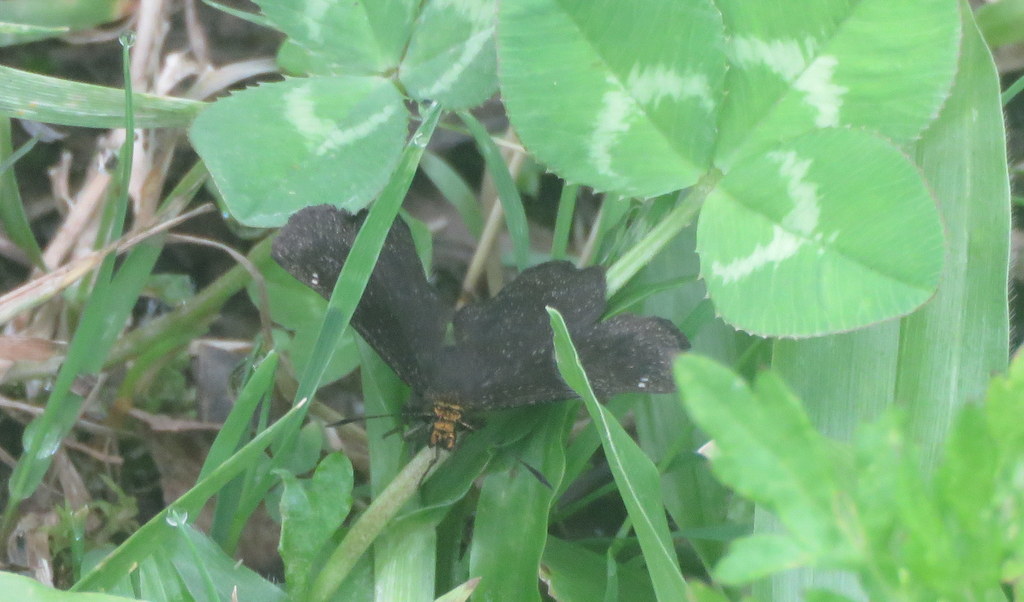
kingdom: Animalia
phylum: Arthropoda
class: Insecta
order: Lepidoptera
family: Hesperiidae
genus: Staphylus
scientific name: Staphylus musculus
